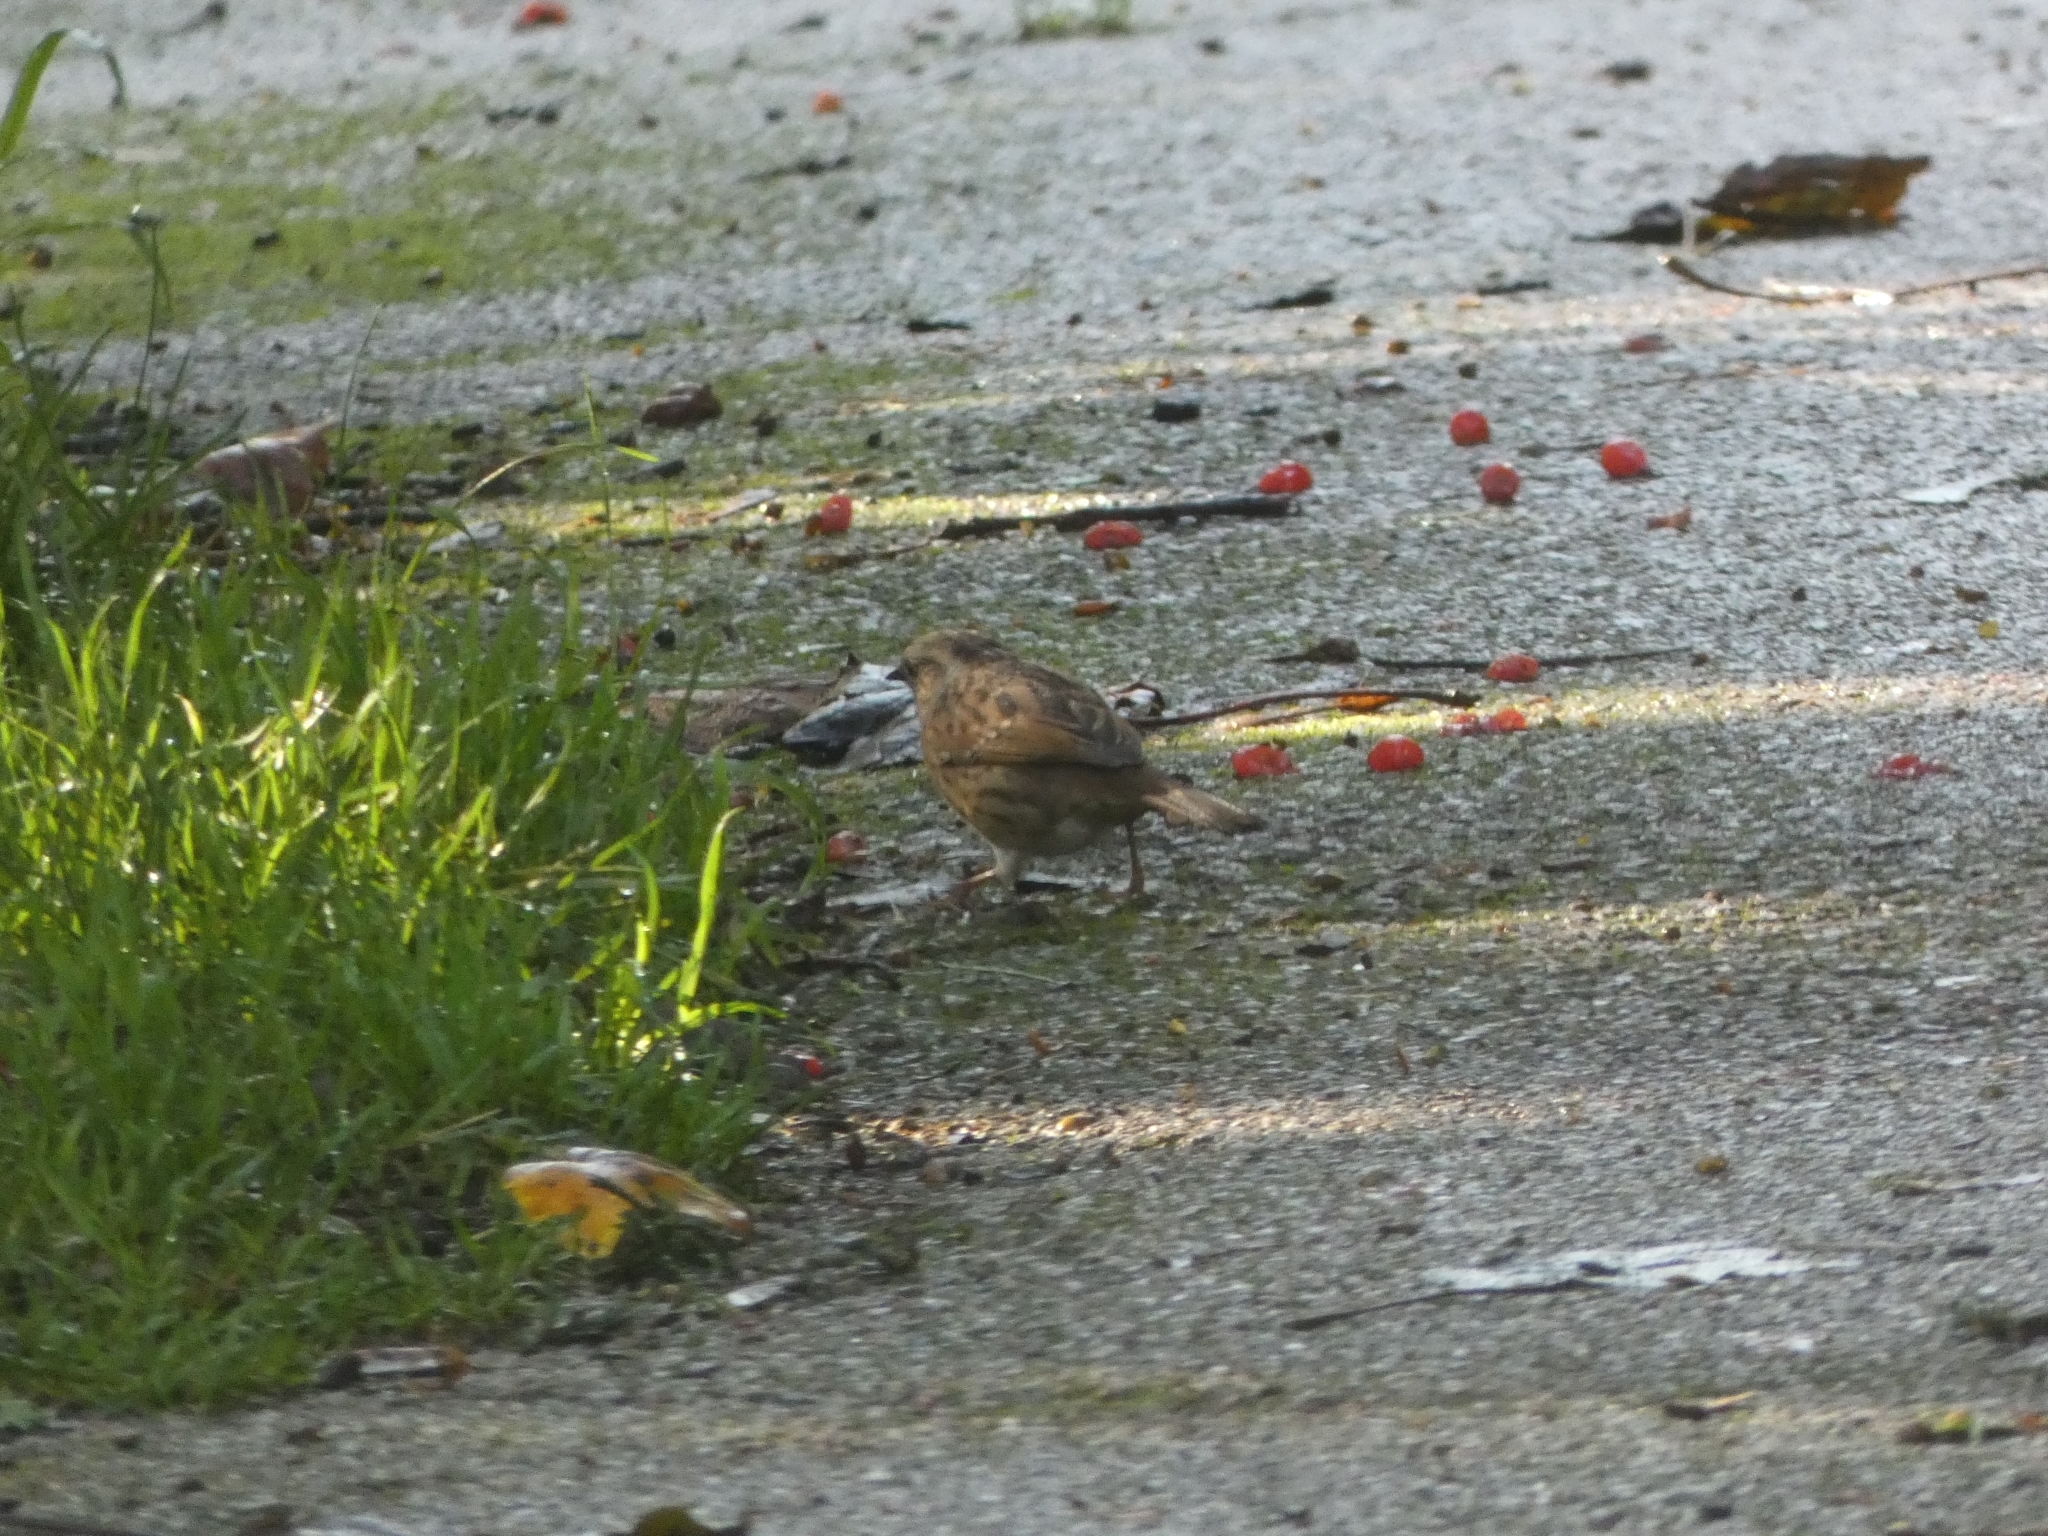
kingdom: Animalia
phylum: Chordata
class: Aves
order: Passeriformes
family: Prunellidae
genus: Prunella
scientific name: Prunella modularis
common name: Dunnock
